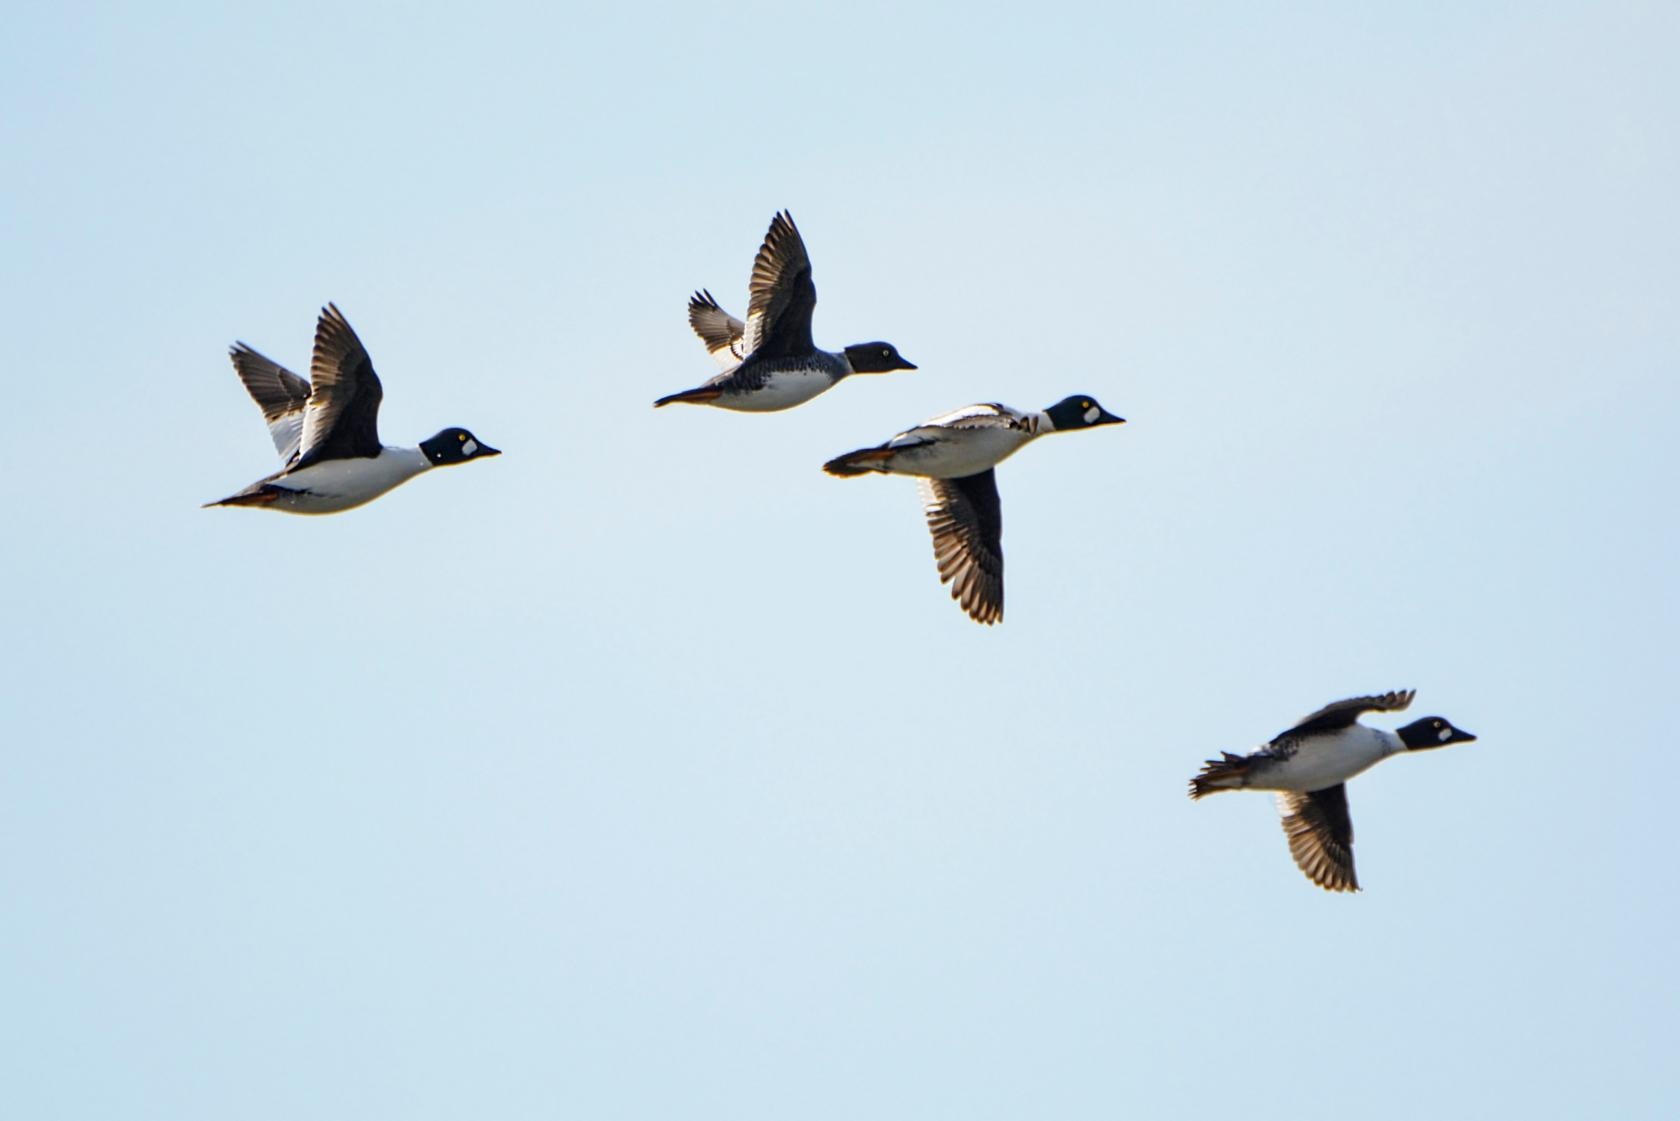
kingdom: Animalia
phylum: Chordata
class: Aves
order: Anseriformes
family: Anatidae
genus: Bucephala
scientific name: Bucephala clangula
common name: Common goldeneye
